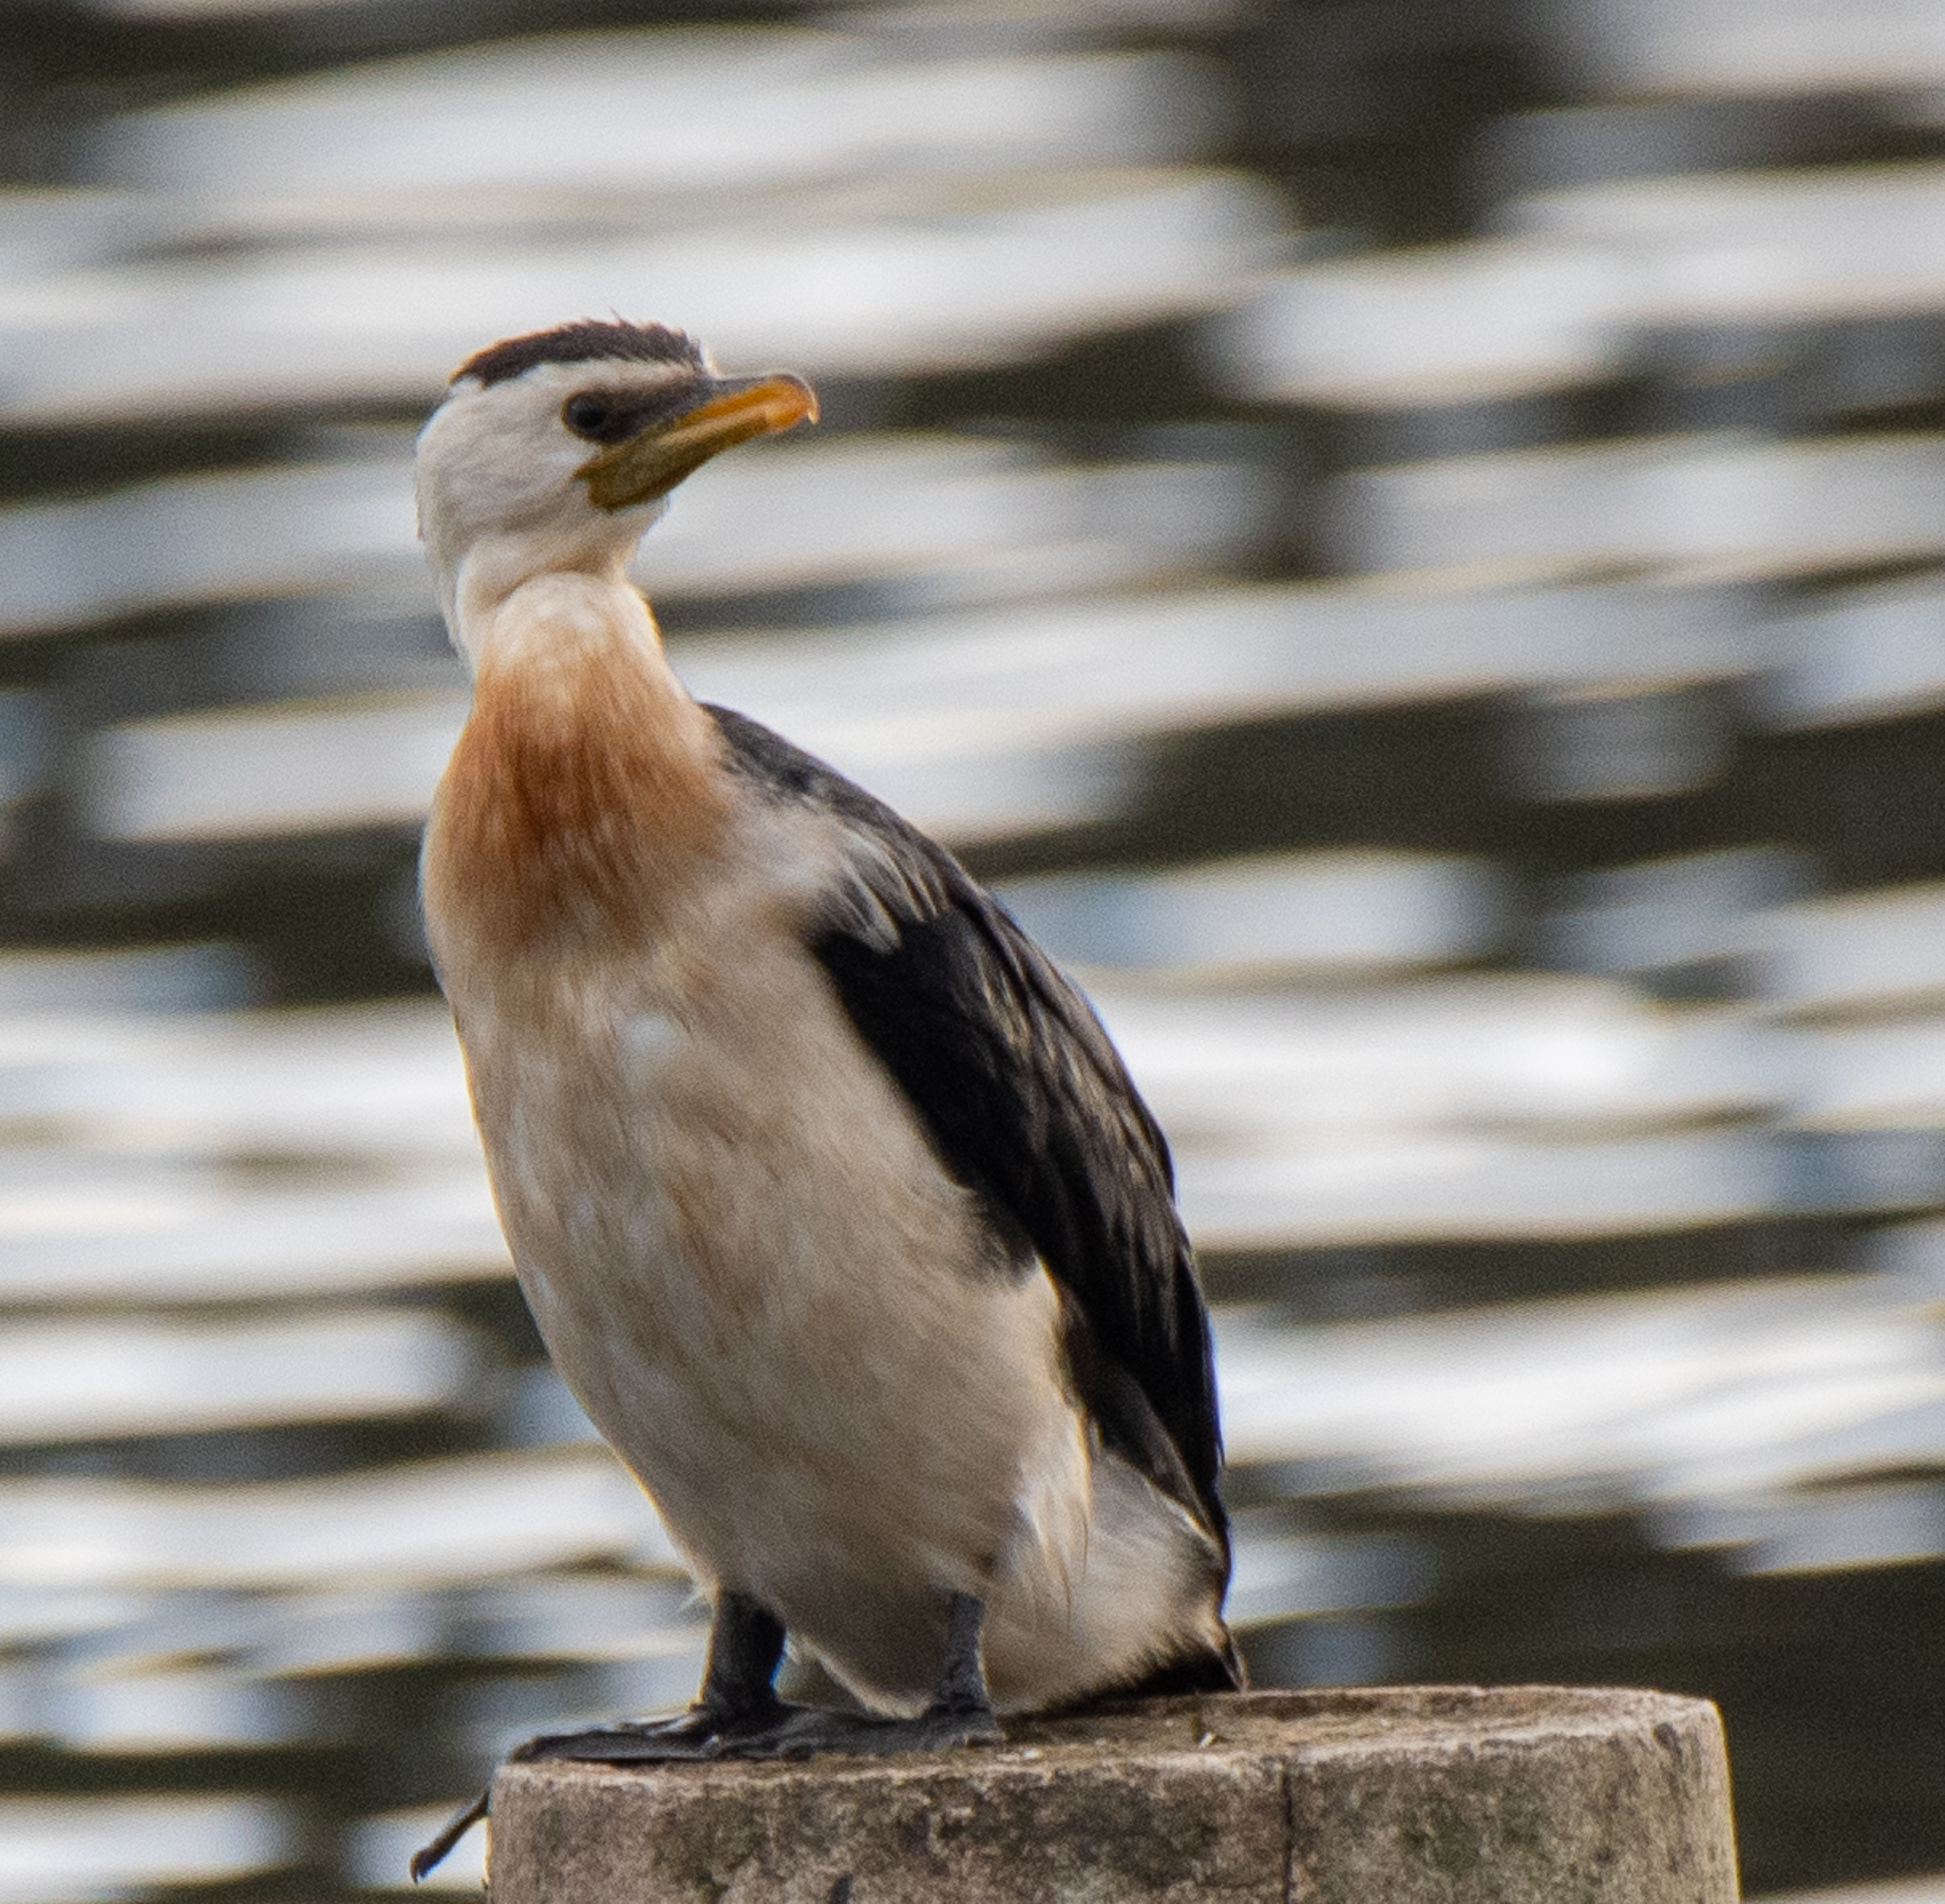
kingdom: Animalia
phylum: Chordata
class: Aves
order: Suliformes
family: Phalacrocoracidae
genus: Microcarbo
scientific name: Microcarbo melanoleucos
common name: Little pied cormorant
